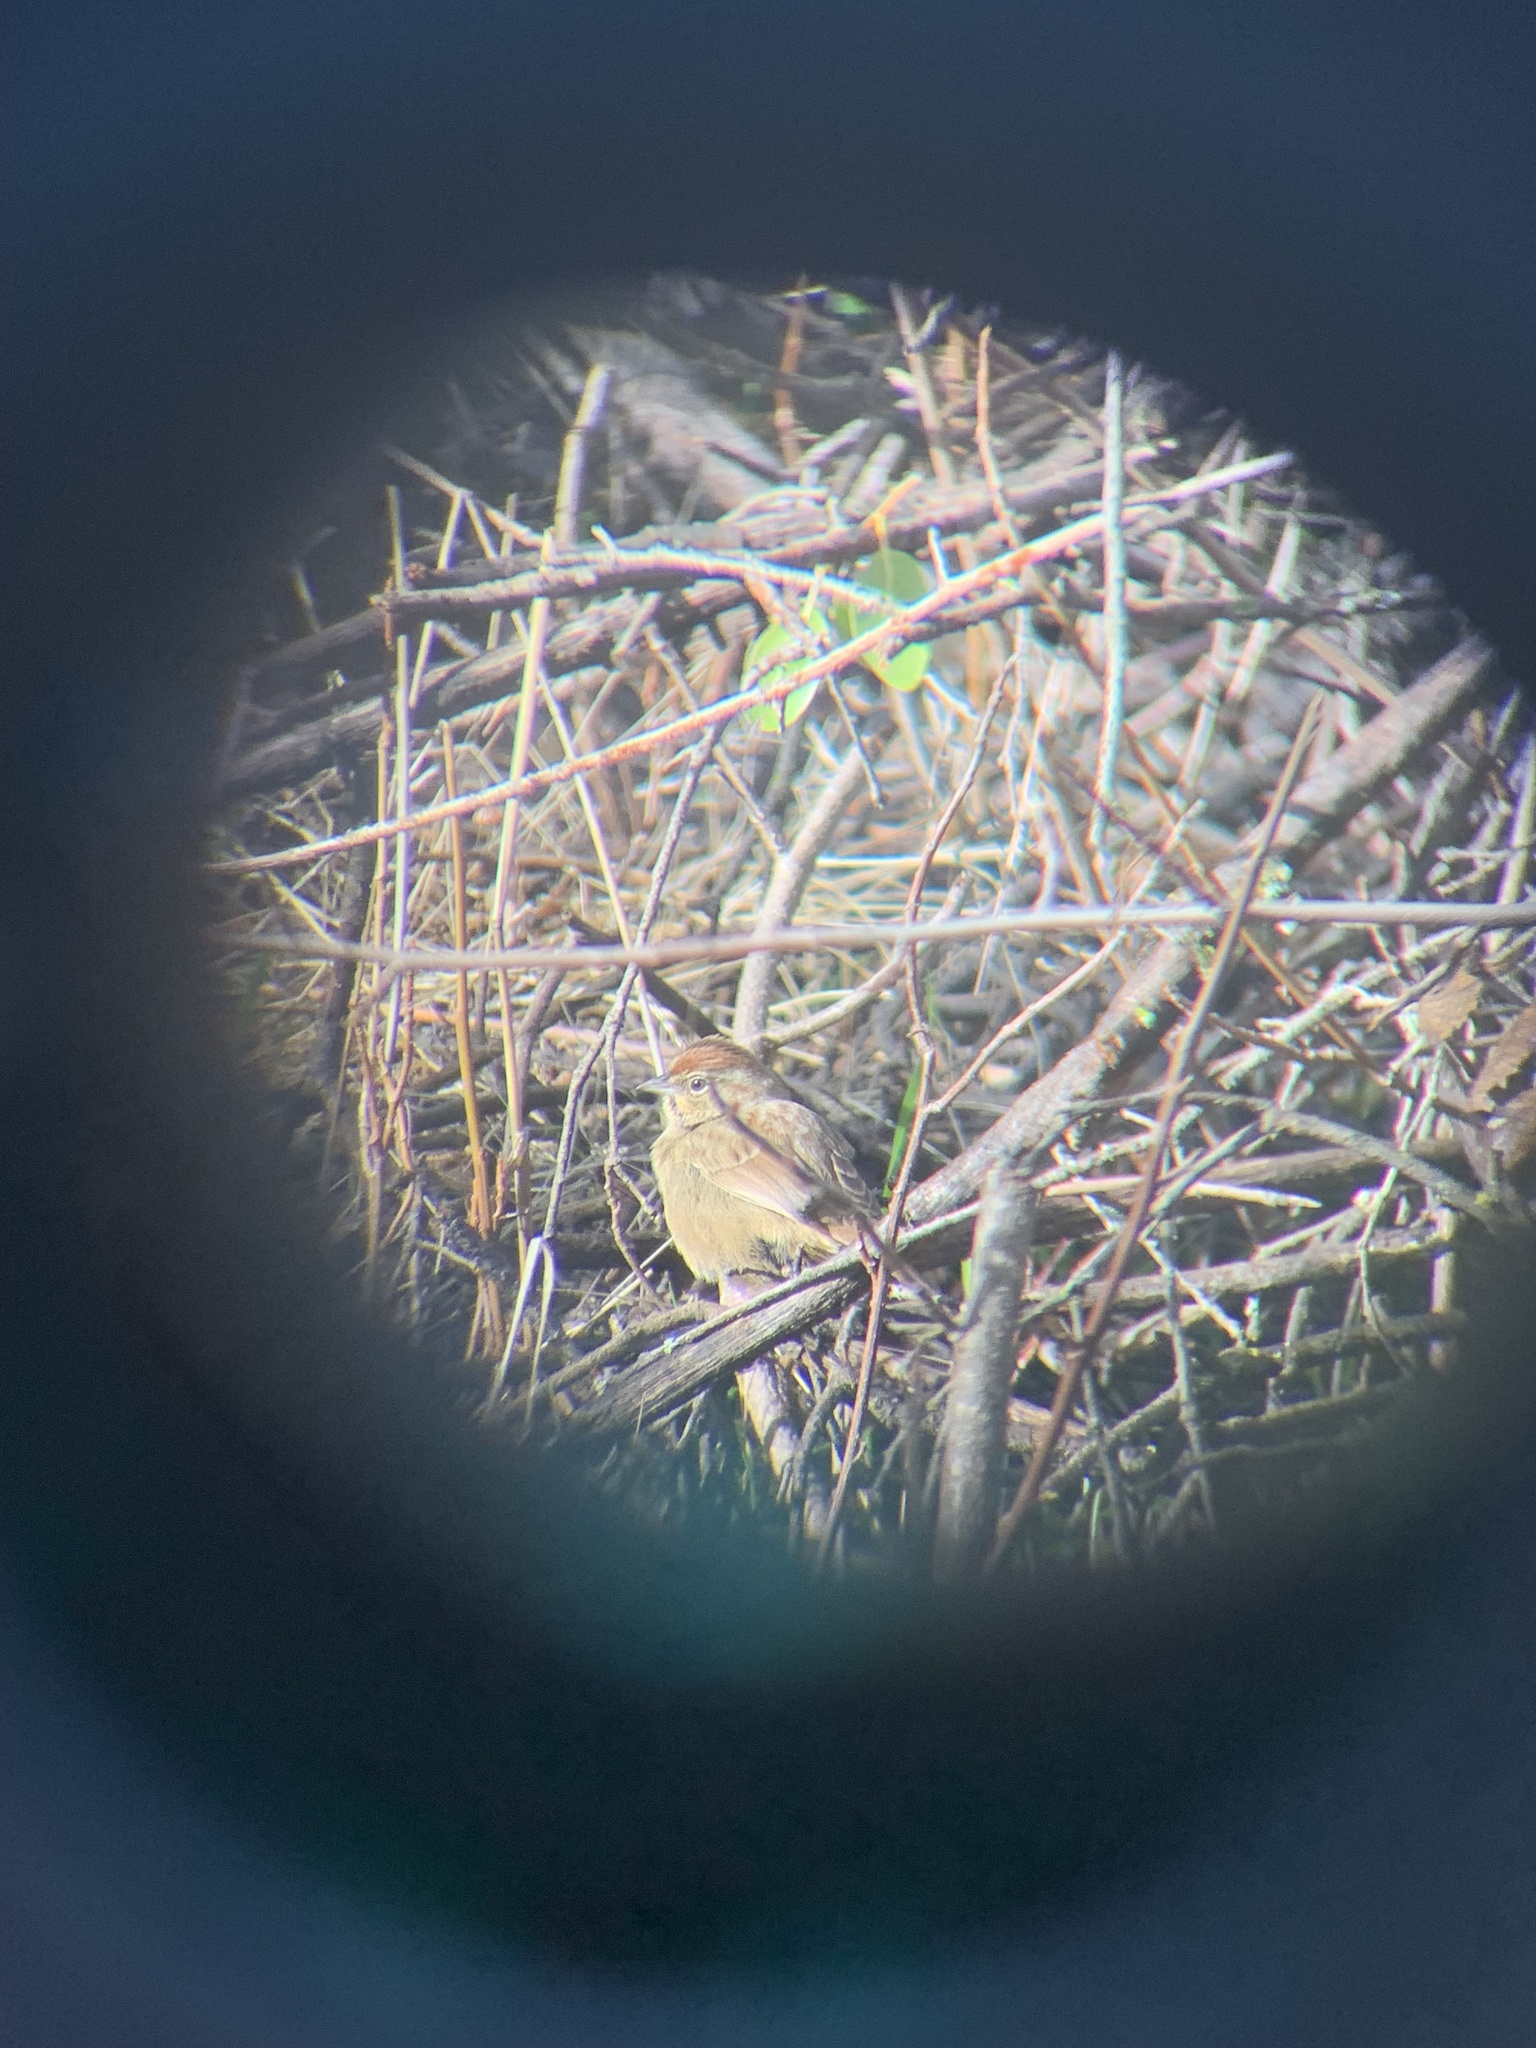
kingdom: Animalia
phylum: Chordata
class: Aves
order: Passeriformes
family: Passerellidae
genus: Aimophila
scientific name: Aimophila ruficeps
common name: Rufous-crowned sparrow
